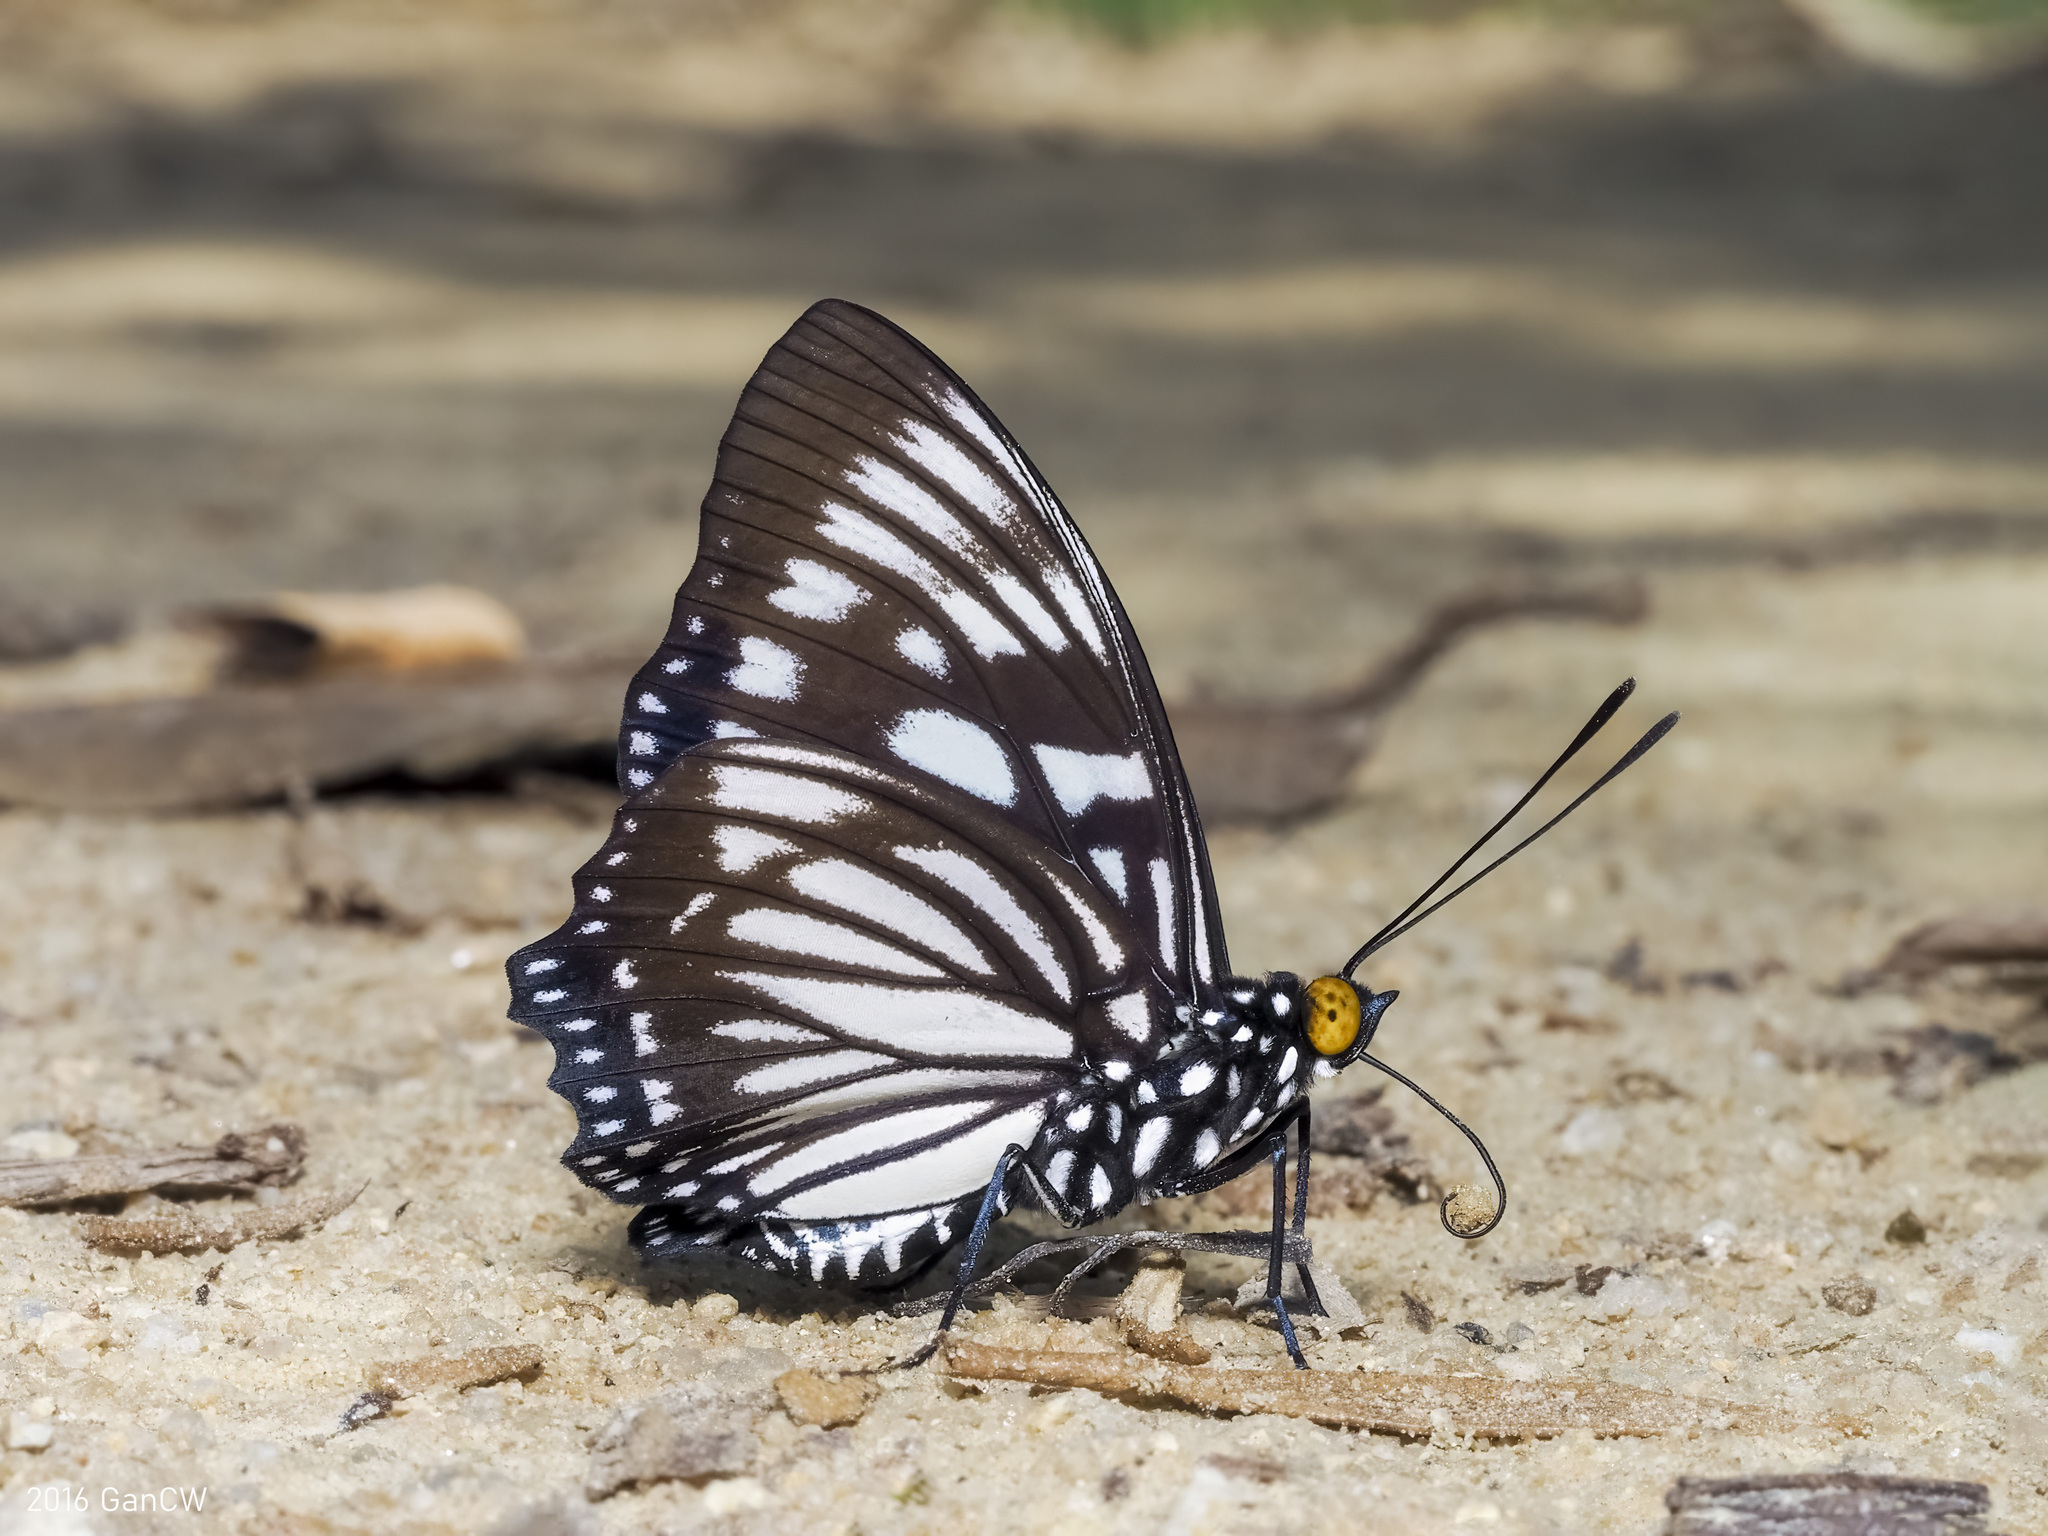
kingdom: Animalia
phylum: Arthropoda
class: Insecta
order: Lepidoptera
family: Nymphalidae
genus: Euripus
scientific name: Euripus nyctelius
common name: Courtesan
